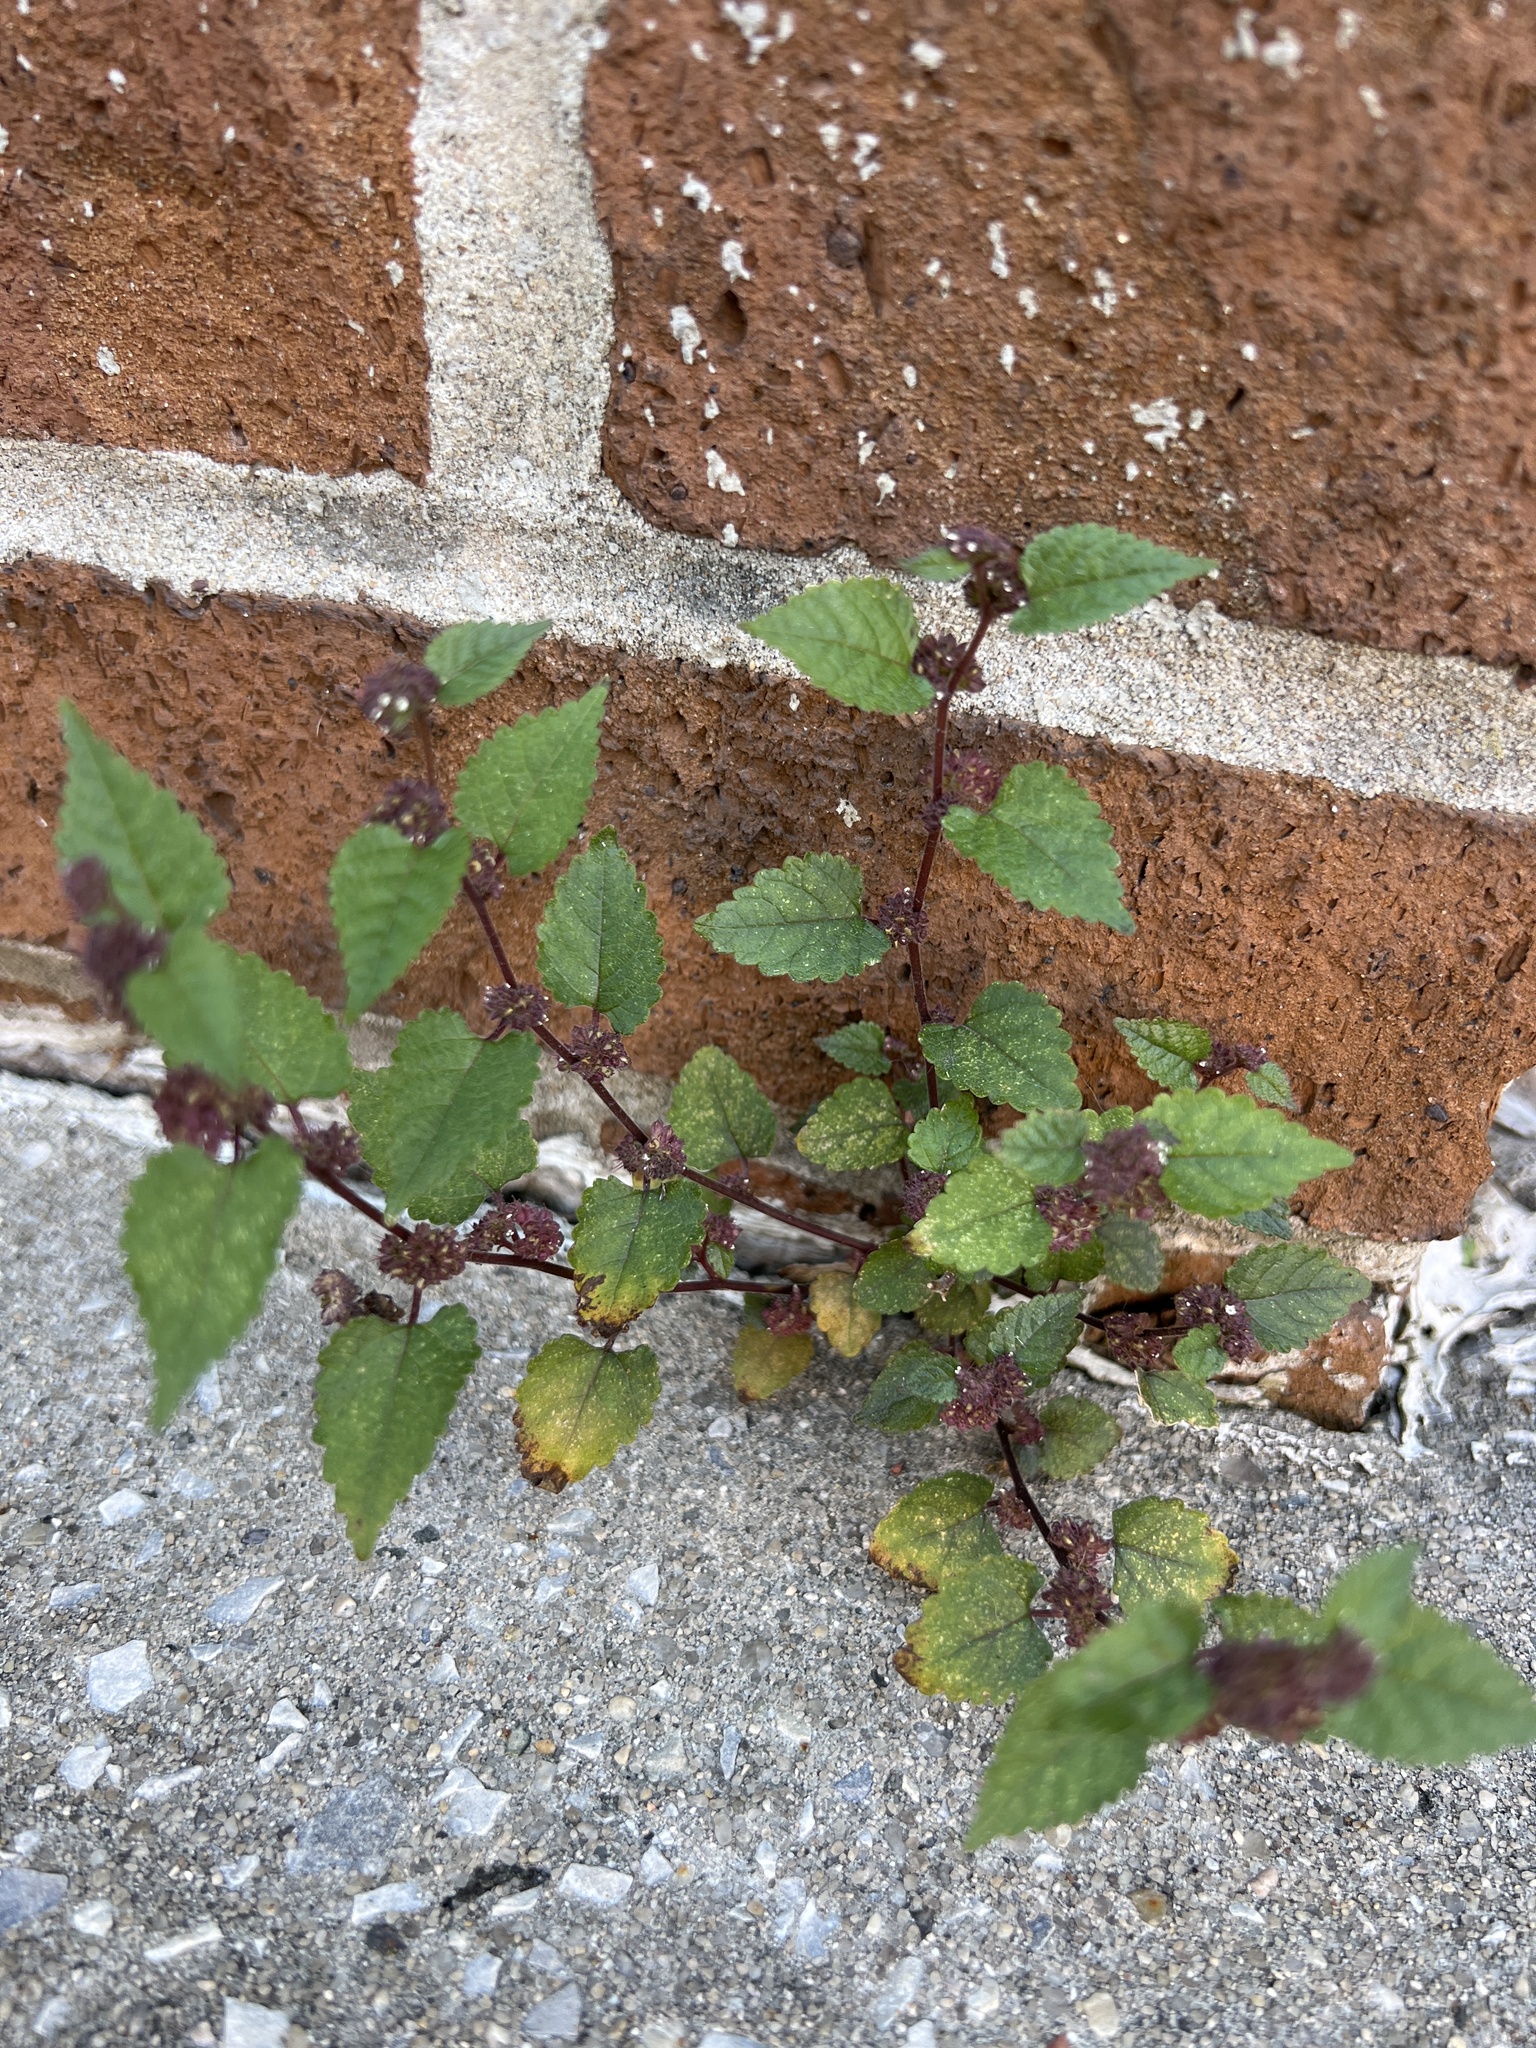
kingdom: Plantae
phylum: Tracheophyta
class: Magnoliopsida
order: Rosales
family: Moraceae
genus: Fatoua
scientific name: Fatoua villosa
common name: Hairy crabweed
